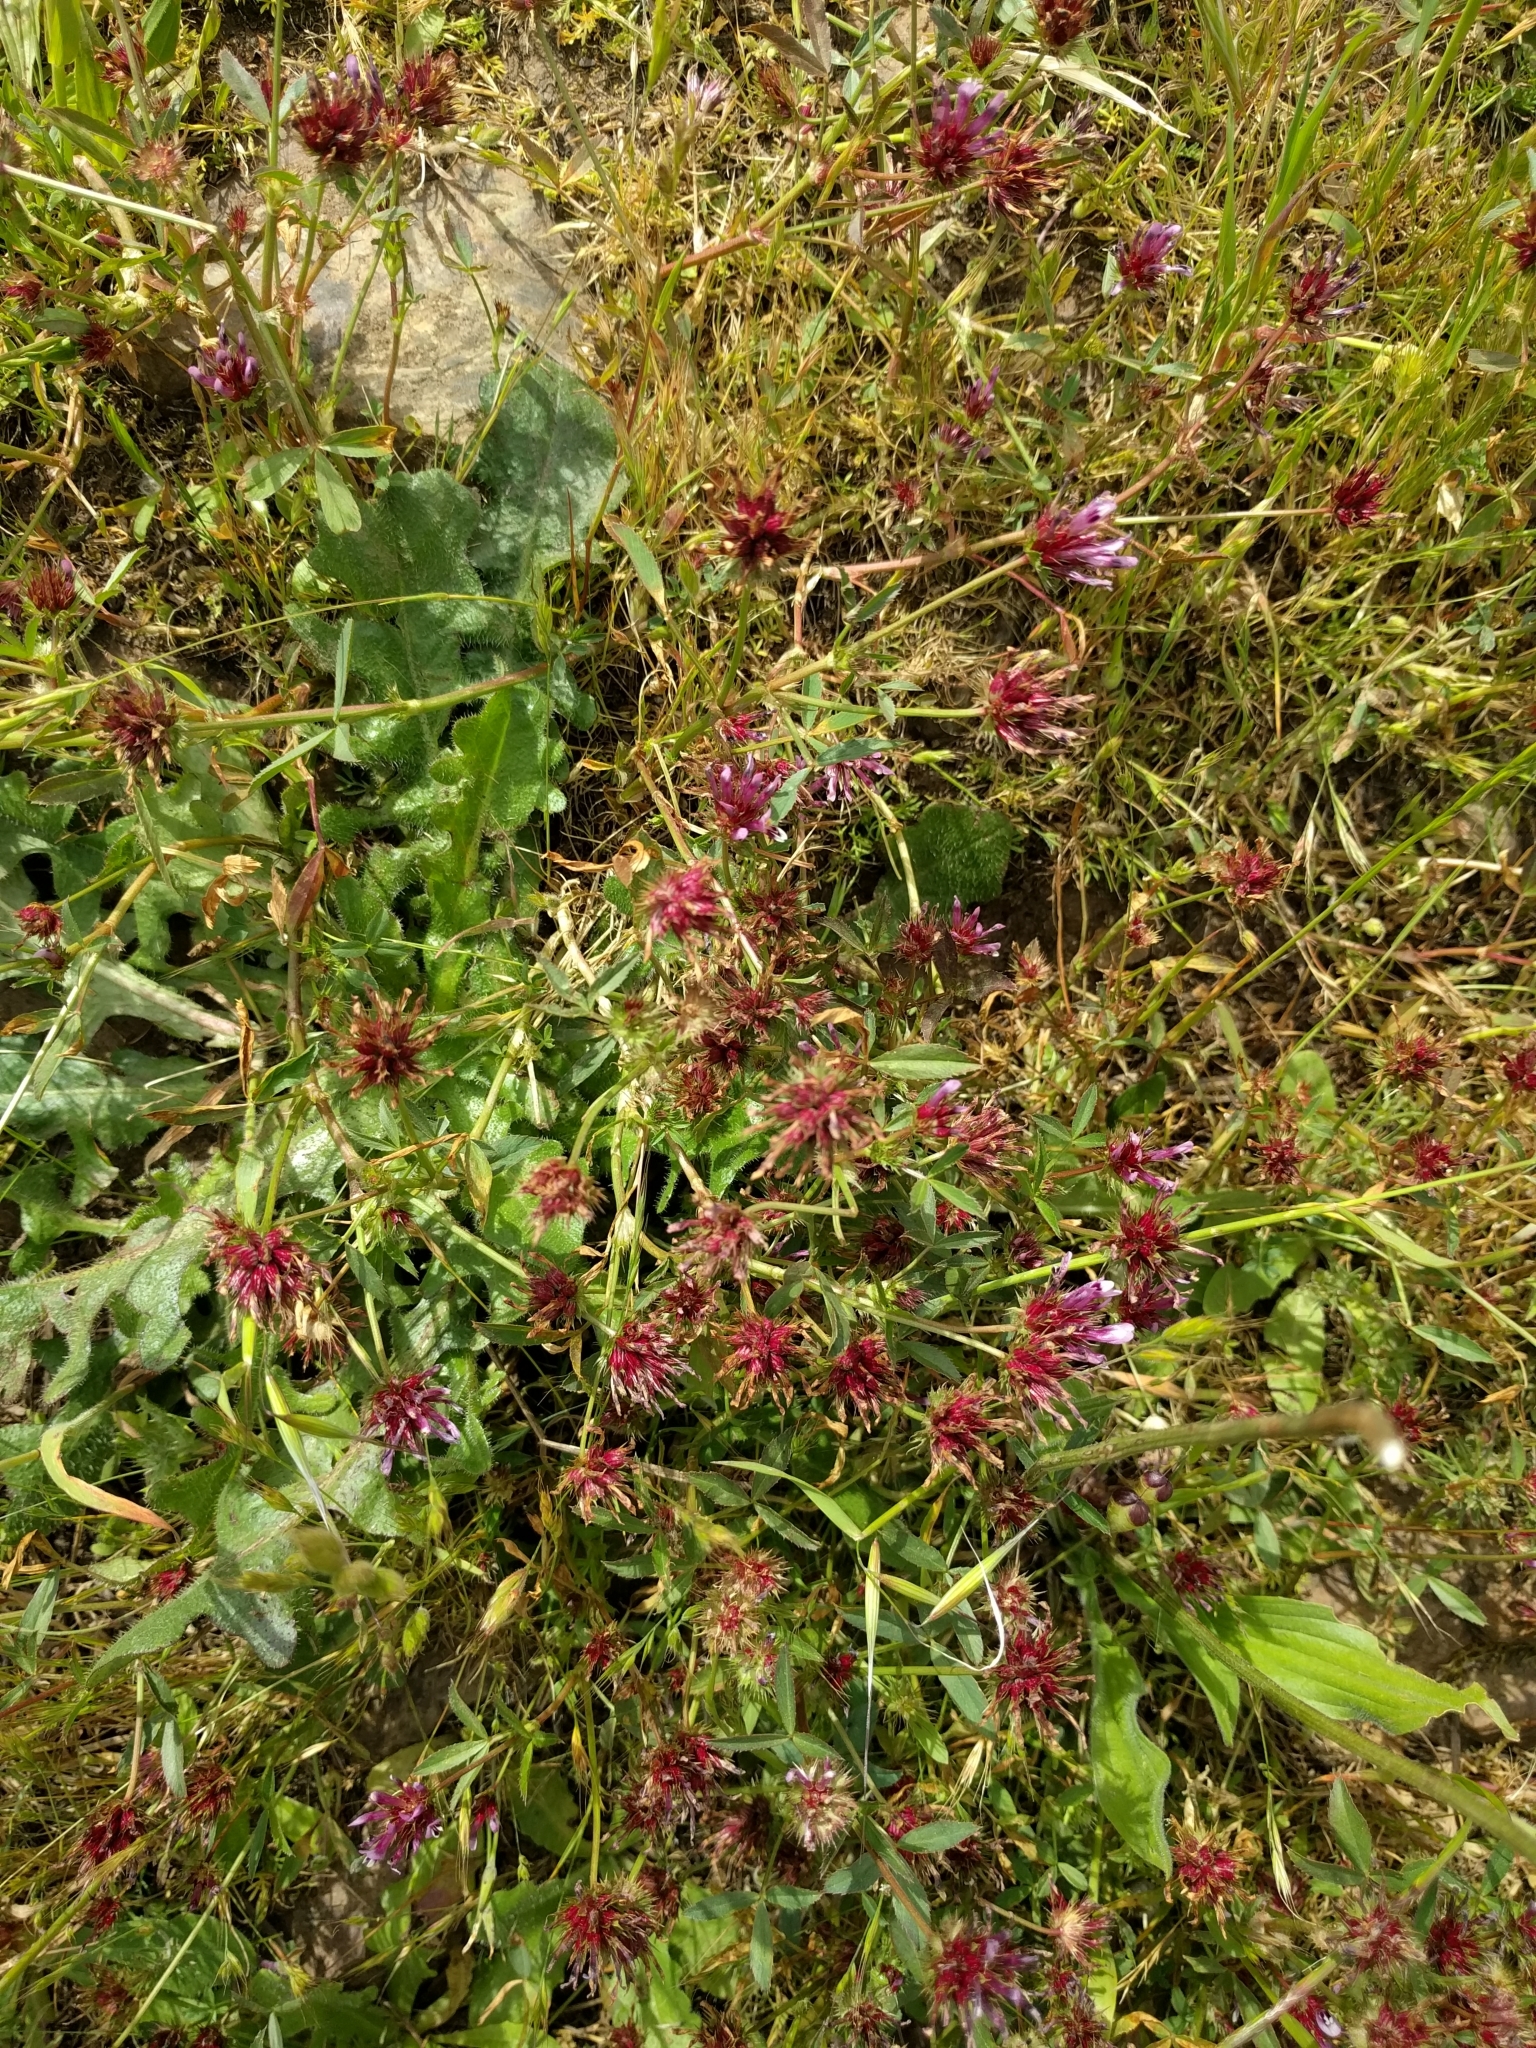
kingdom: Plantae
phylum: Tracheophyta
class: Magnoliopsida
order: Fabales
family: Fabaceae
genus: Trifolium
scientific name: Trifolium willdenovii
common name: Tomcat clover
